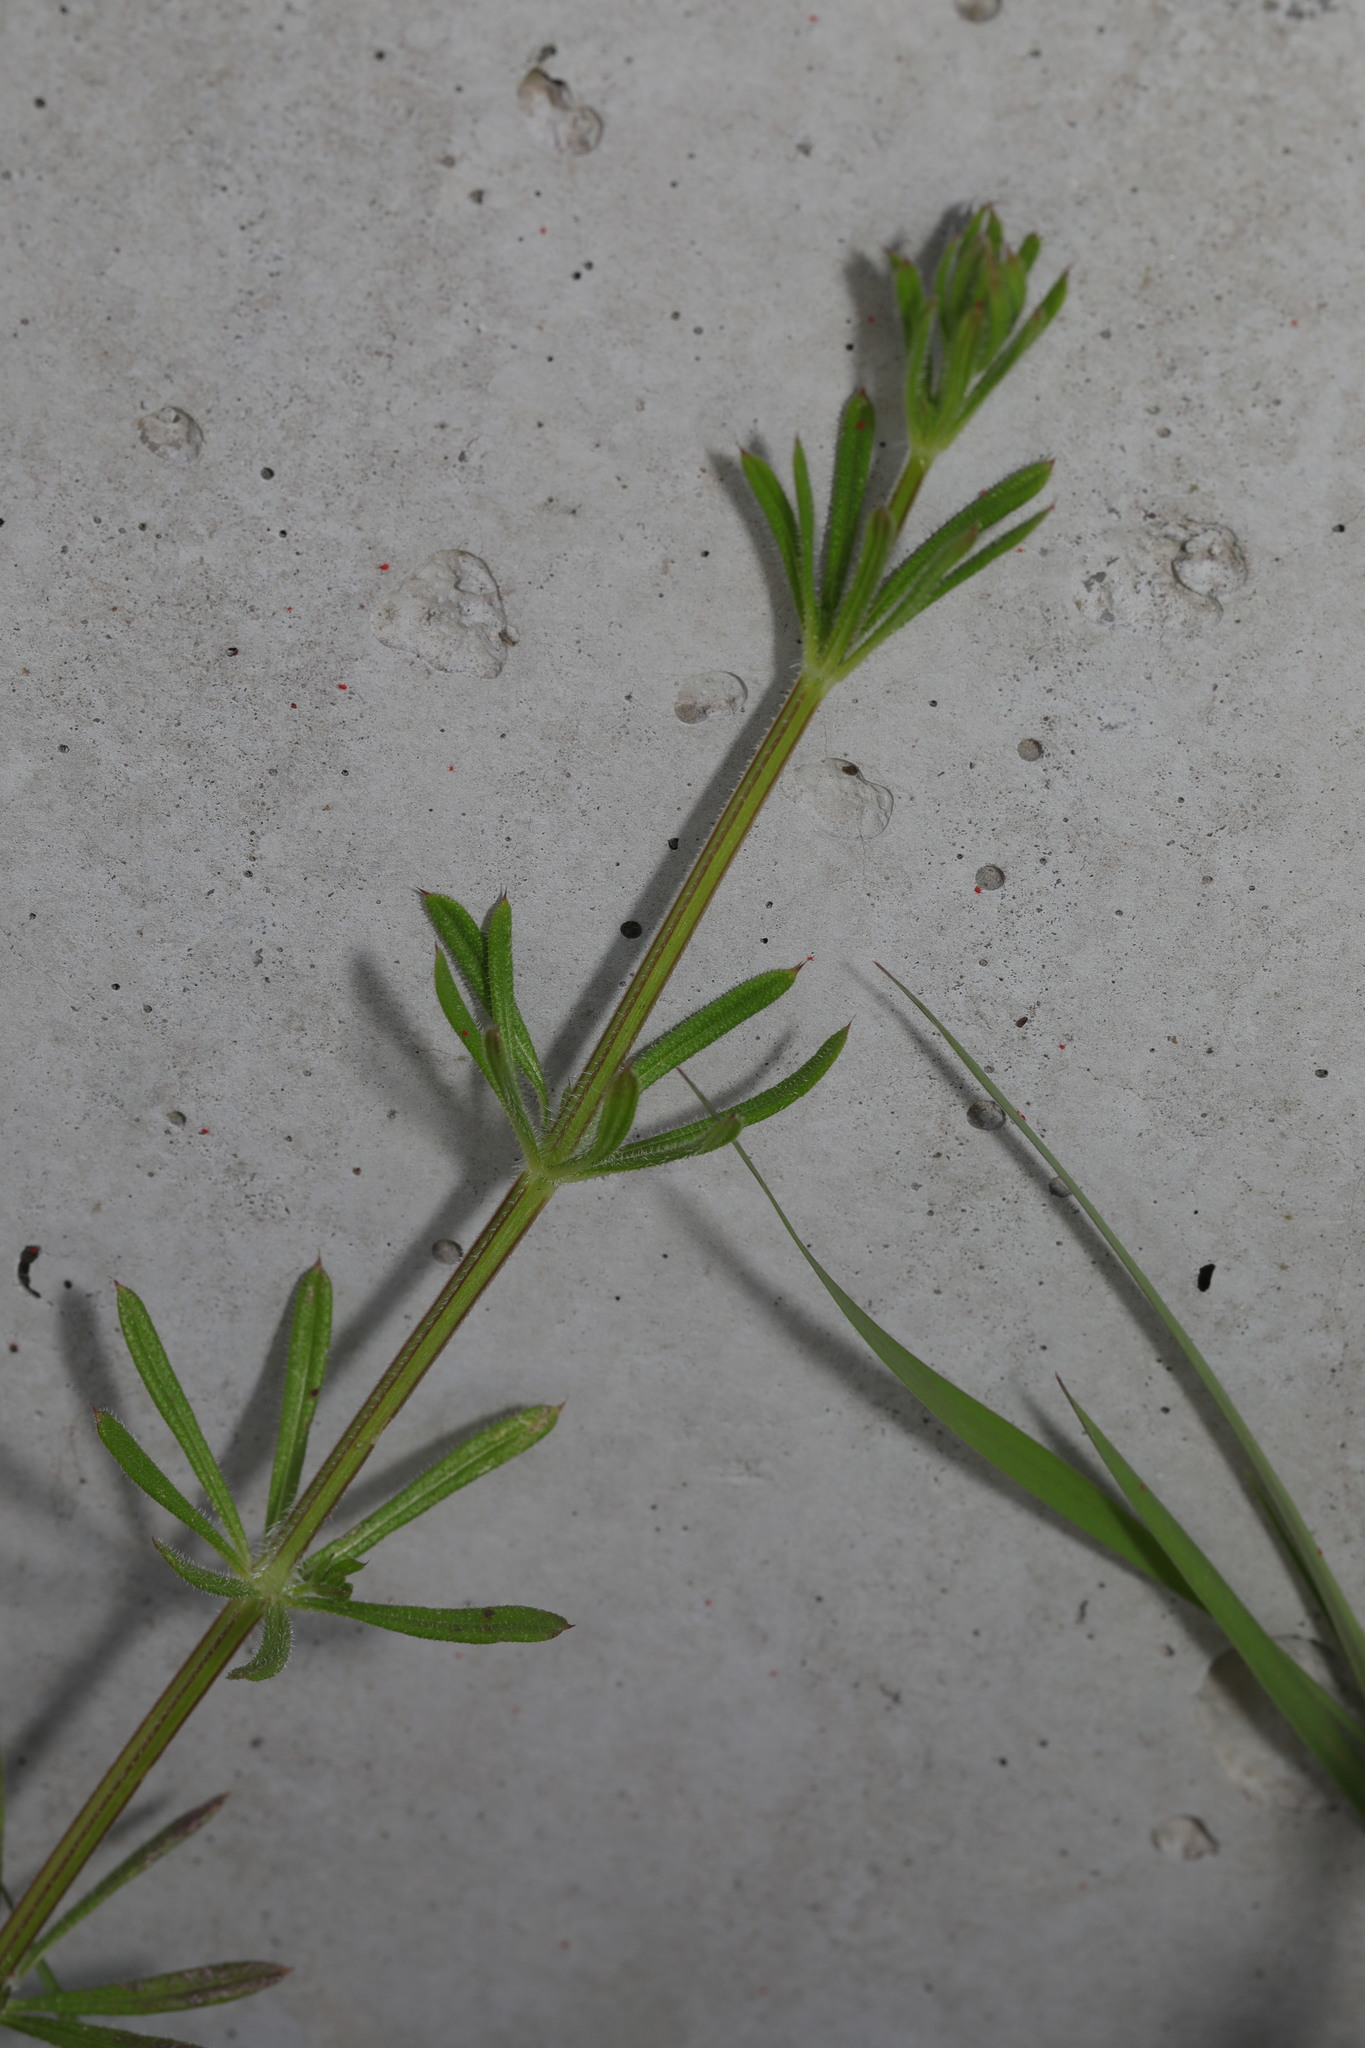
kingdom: Plantae
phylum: Tracheophyta
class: Magnoliopsida
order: Gentianales
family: Rubiaceae
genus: Galium
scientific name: Galium aparine
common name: Cleavers
